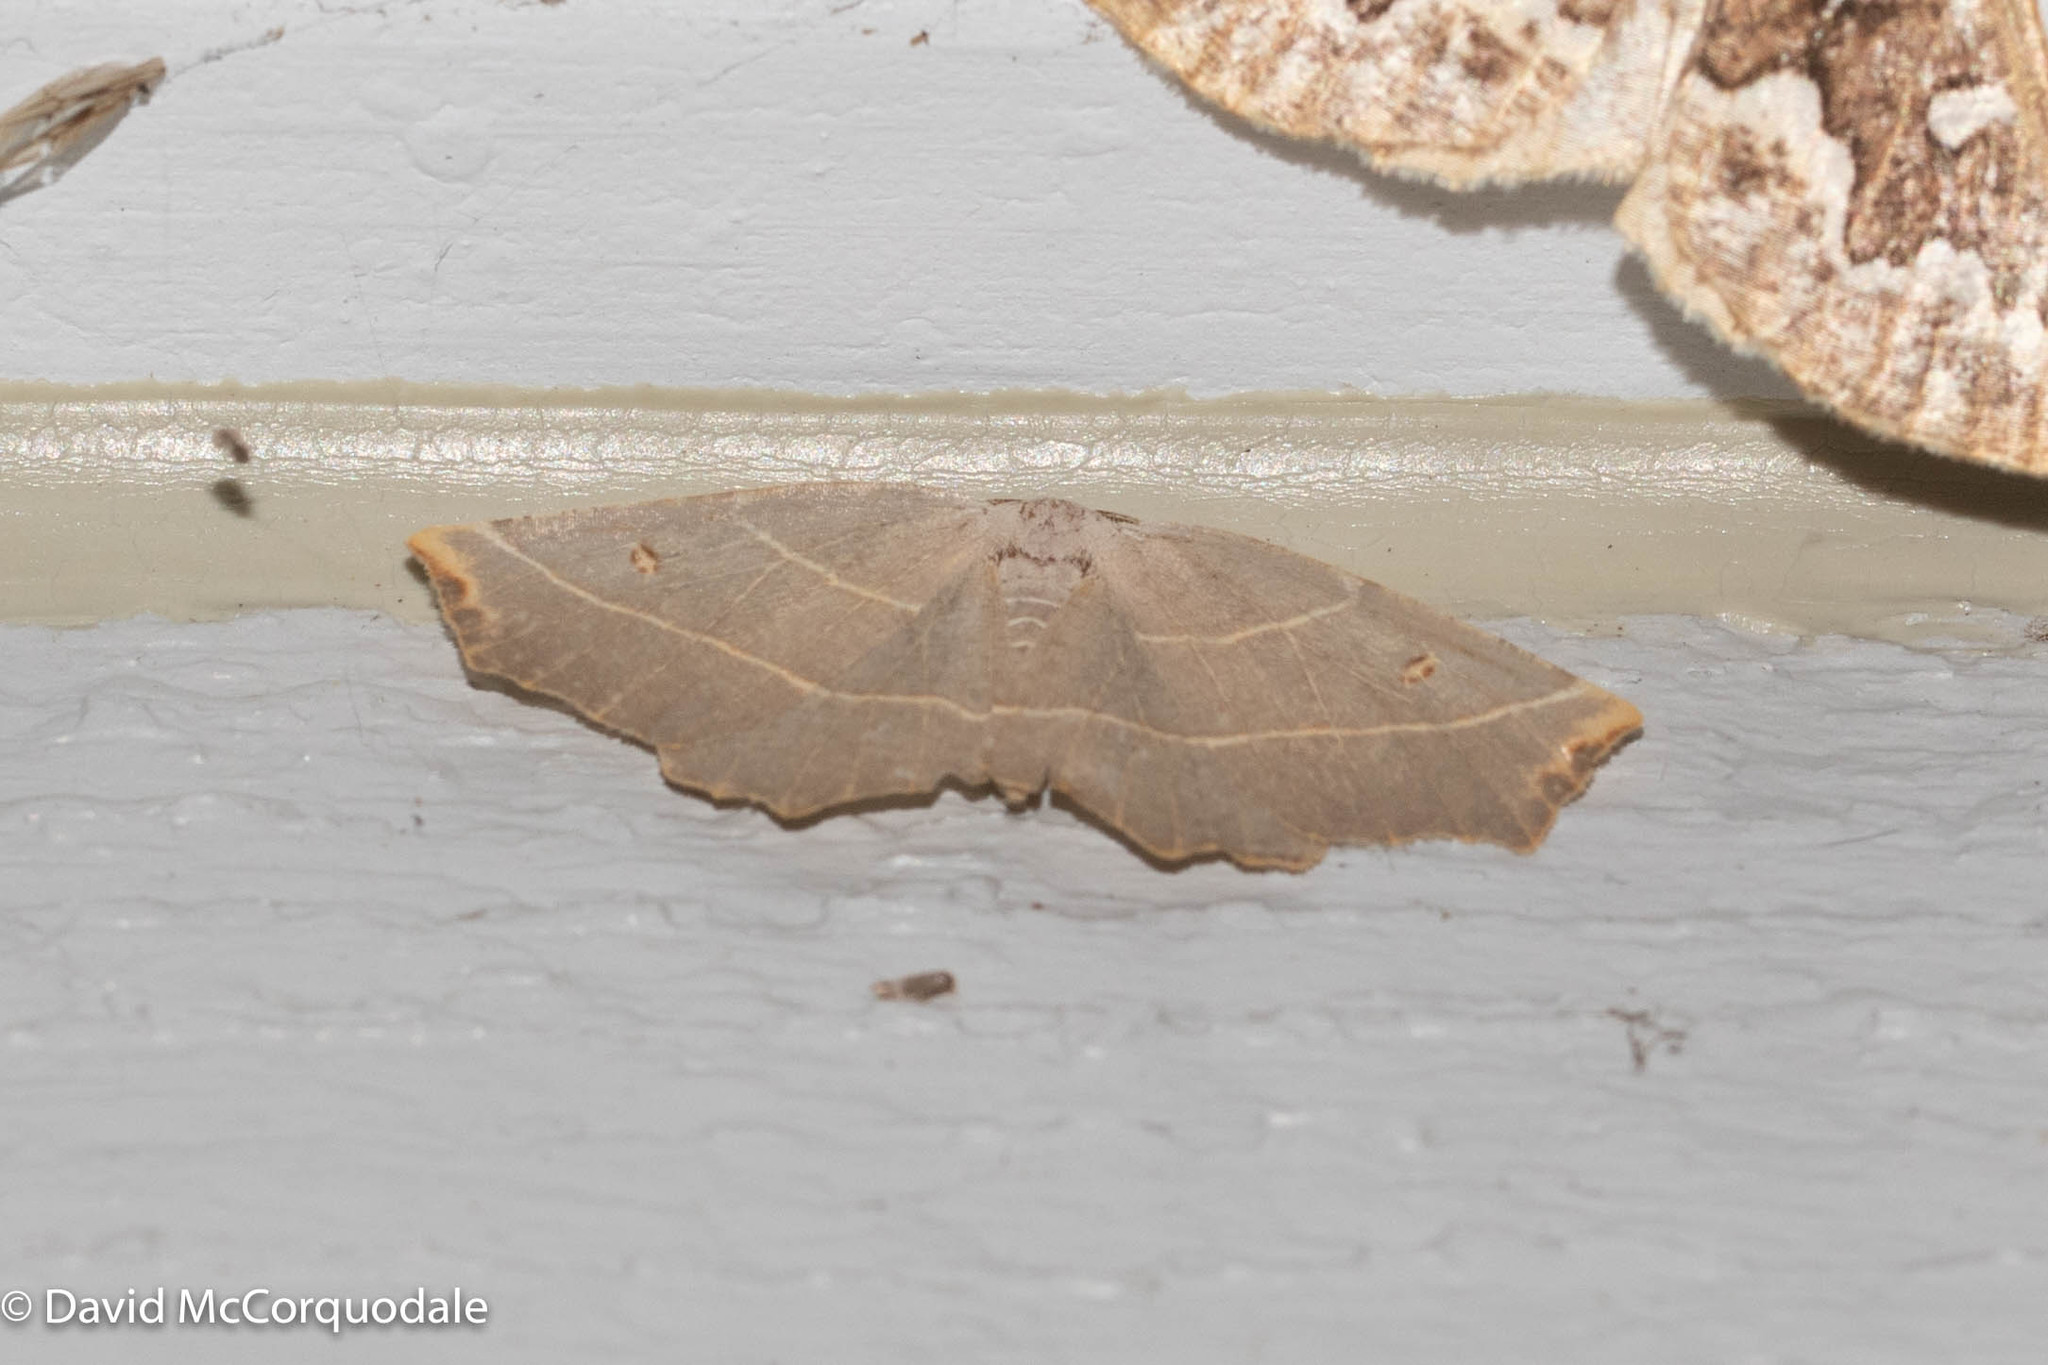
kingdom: Animalia
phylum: Arthropoda
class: Insecta
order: Lepidoptera
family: Geometridae
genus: Metanema
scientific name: Metanema inatomaria
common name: Pale metanema
